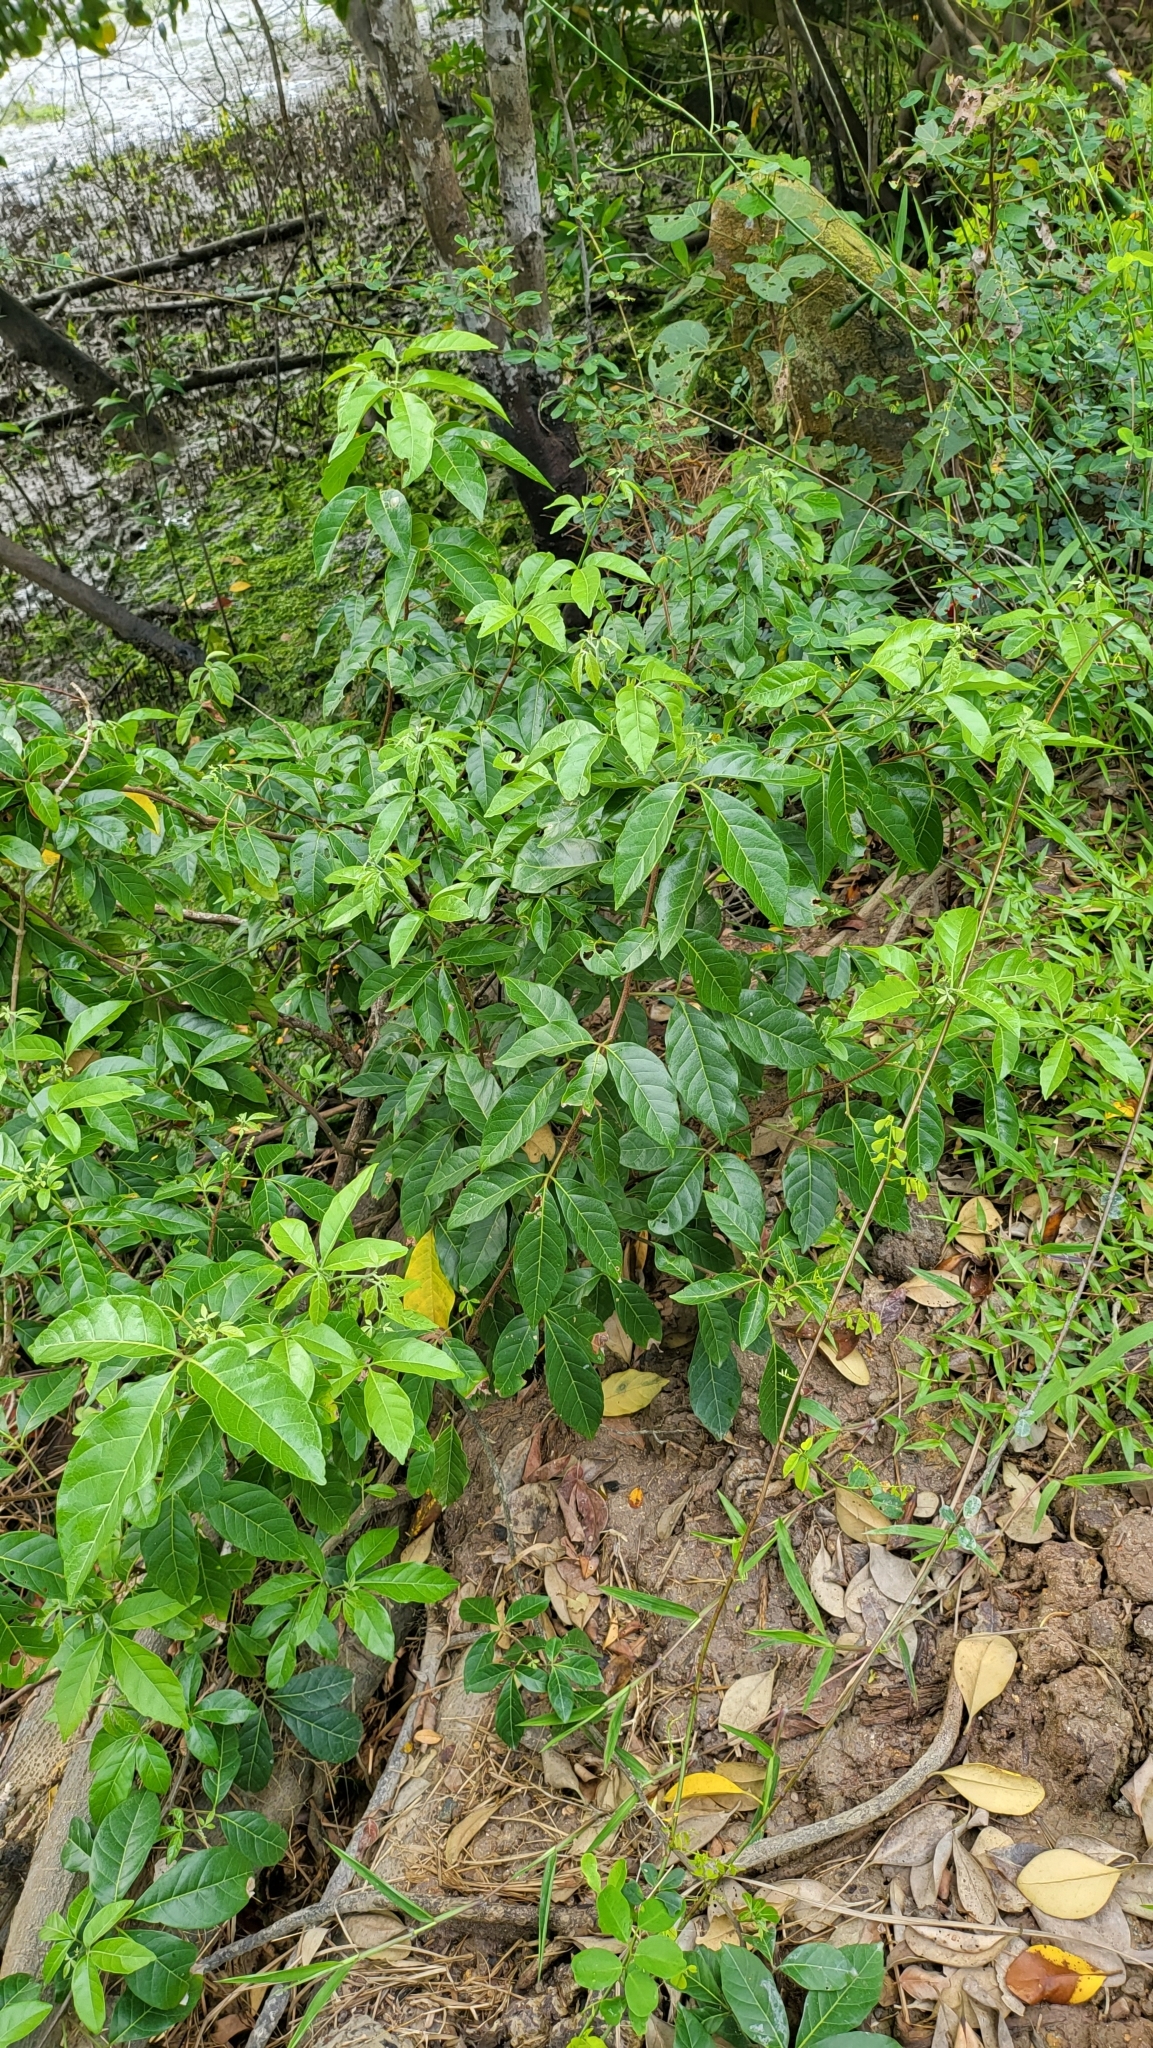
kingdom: Plantae
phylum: Tracheophyta
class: Magnoliopsida
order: Sapindales
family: Sapindaceae
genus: Allophylus
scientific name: Allophylus cobbe
